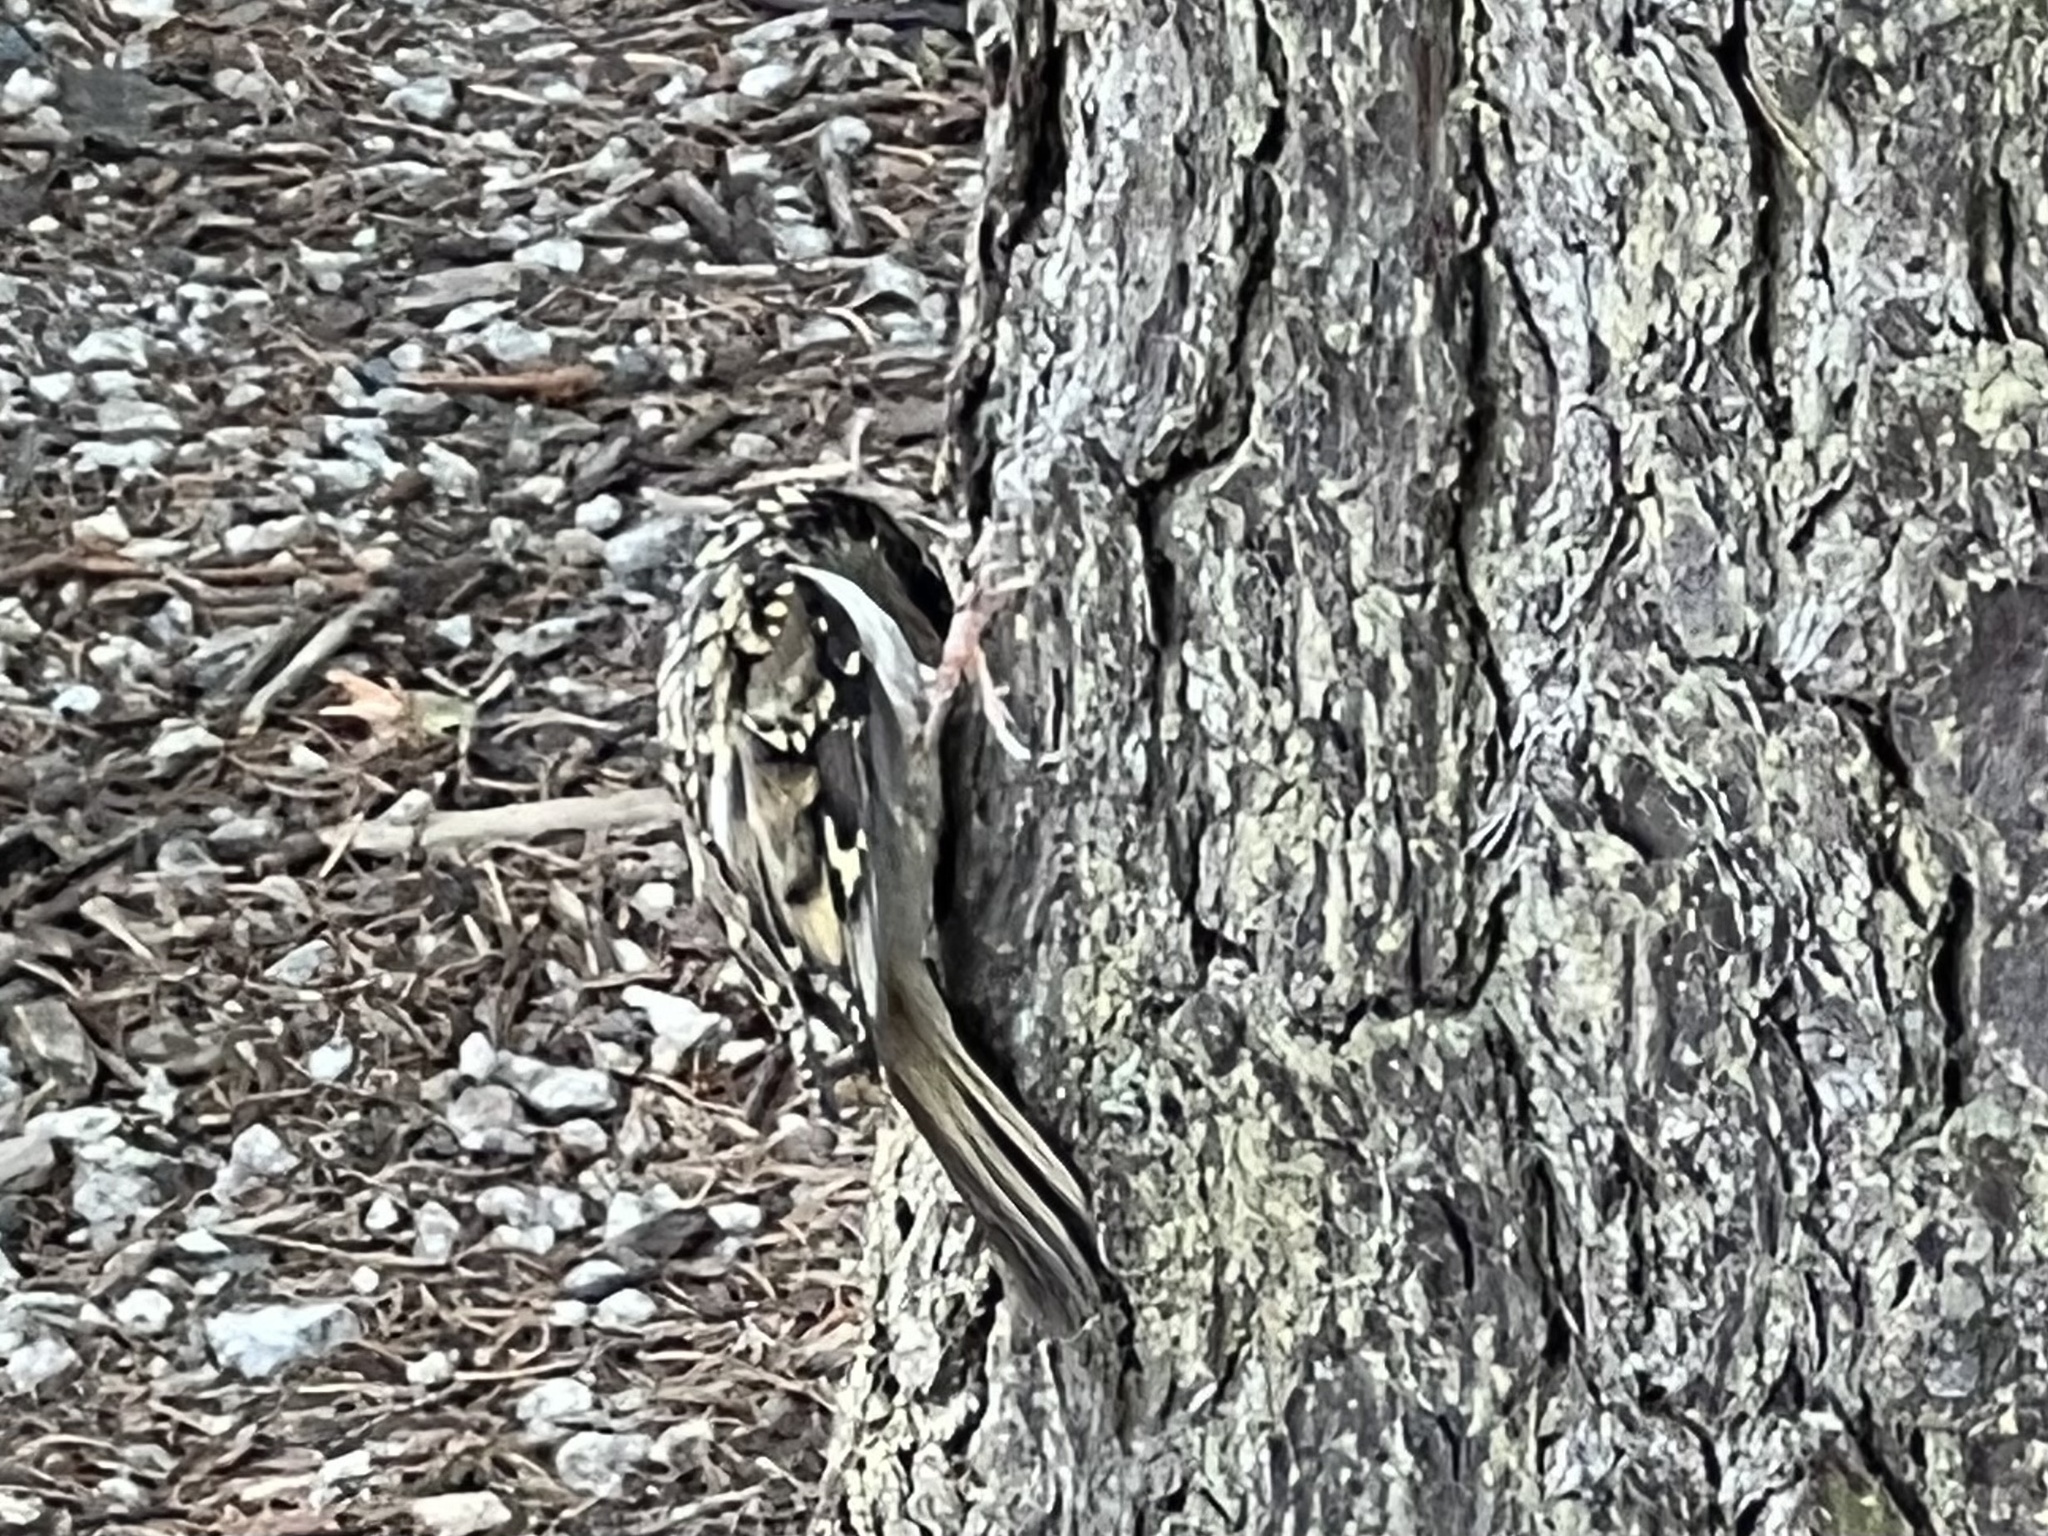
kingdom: Animalia
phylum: Chordata
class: Aves
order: Passeriformes
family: Certhiidae
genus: Certhia
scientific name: Certhia familiaris
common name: Eurasian treecreeper
